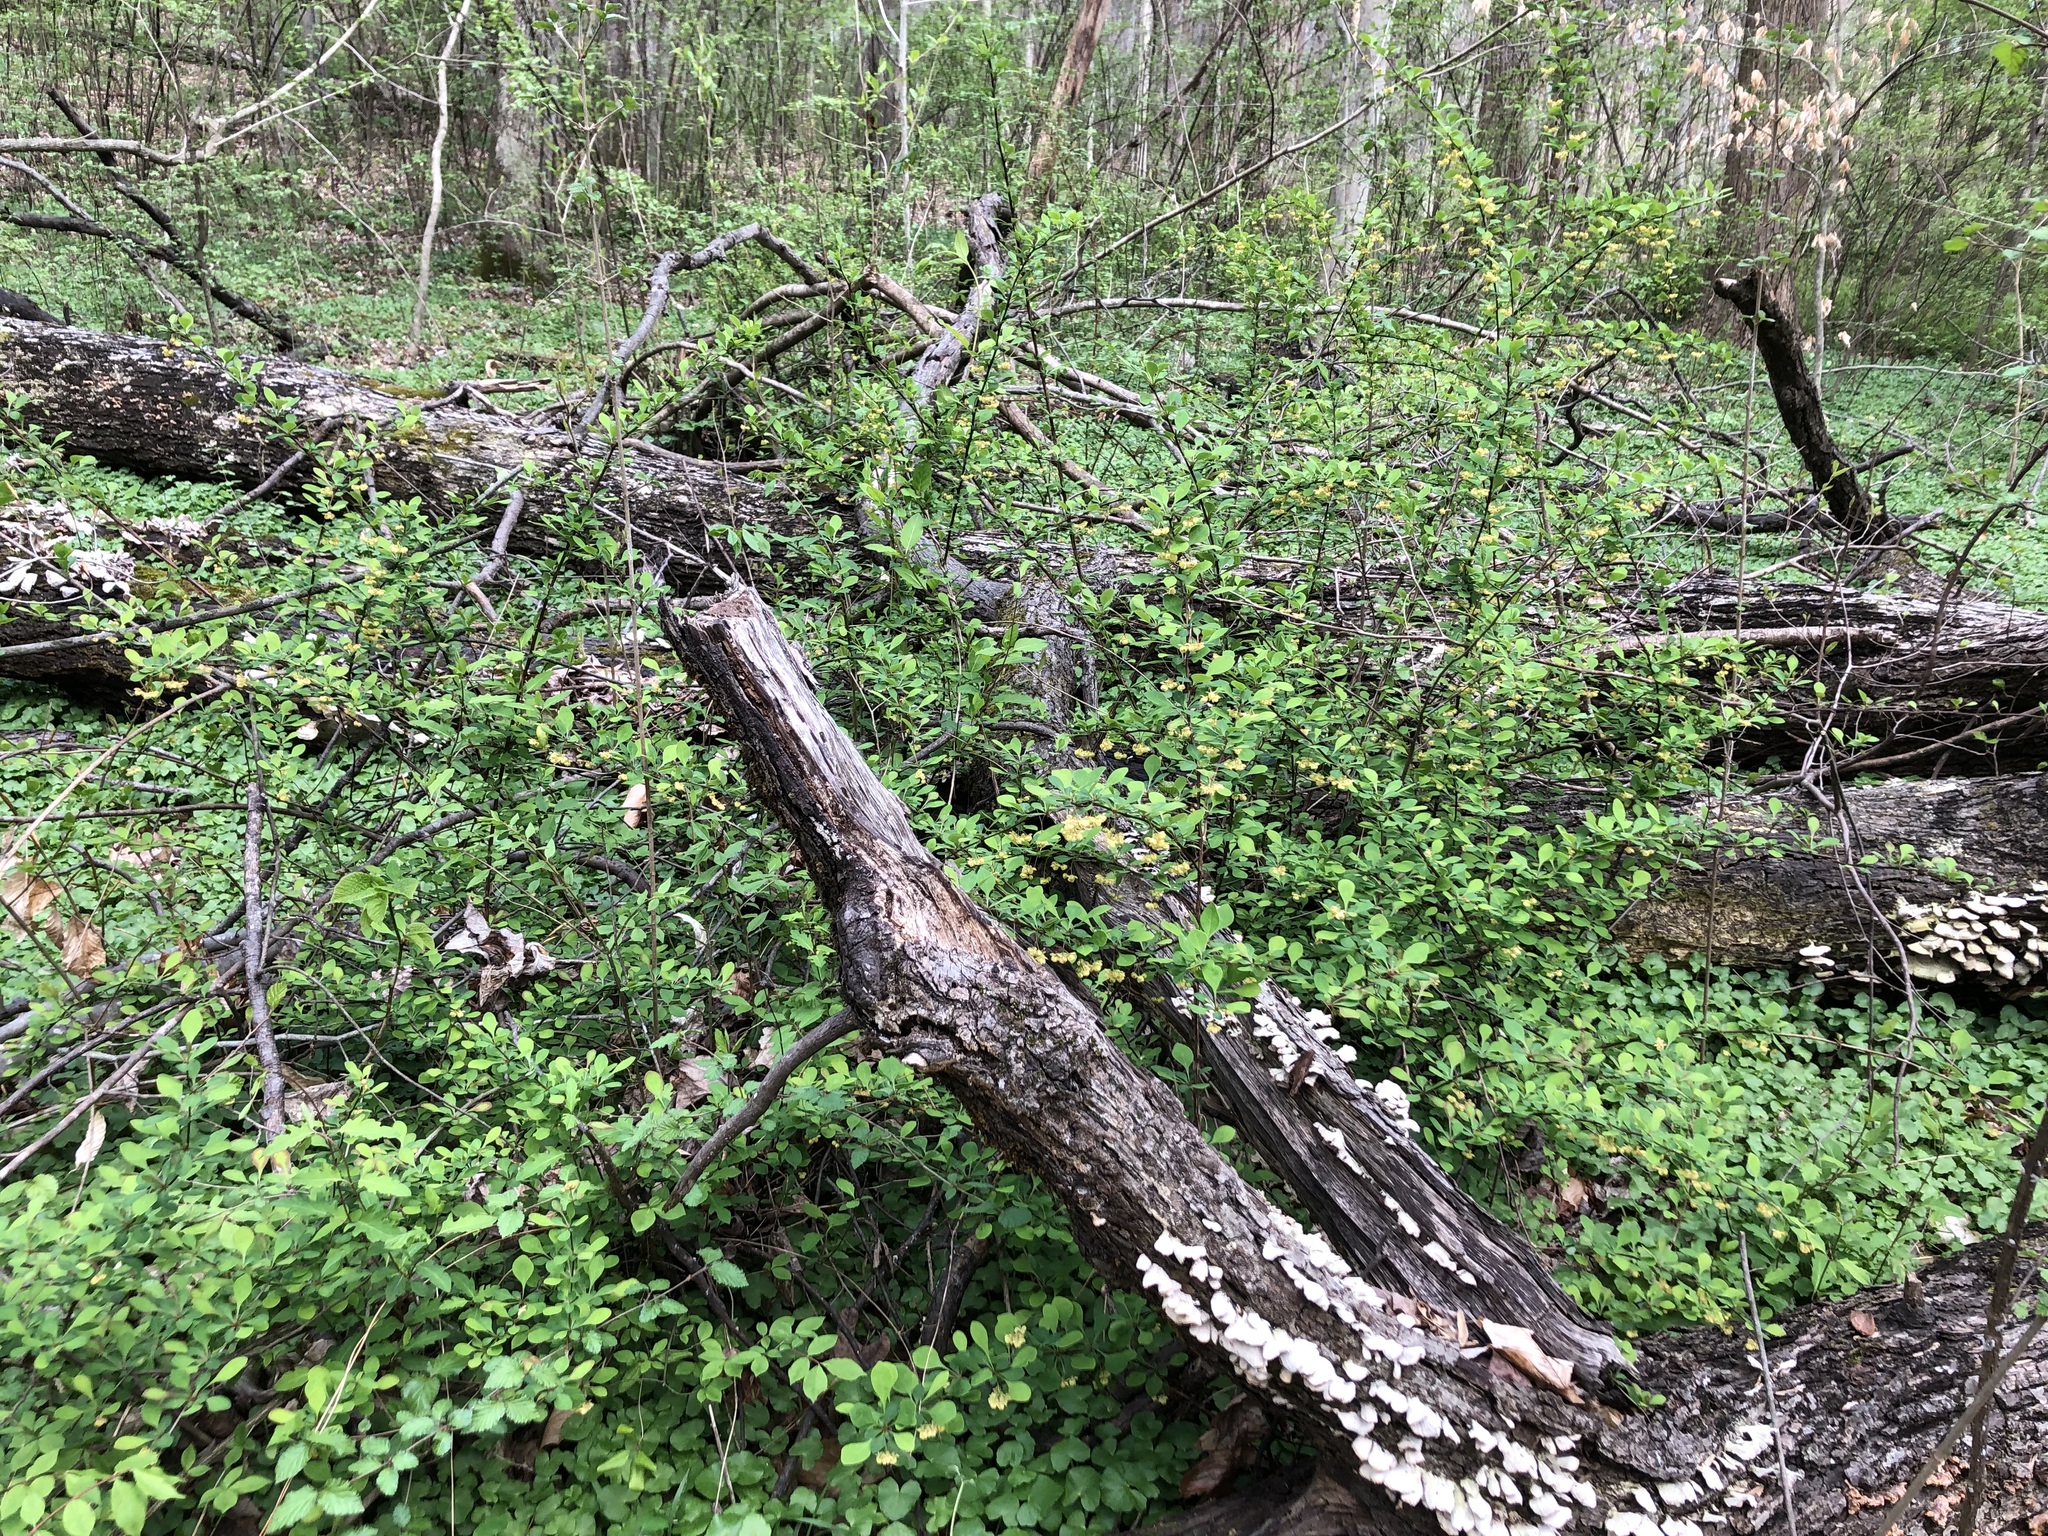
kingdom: Plantae
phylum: Tracheophyta
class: Magnoliopsida
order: Ranunculales
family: Berberidaceae
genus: Berberis
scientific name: Berberis thunbergii
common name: Japanese barberry
